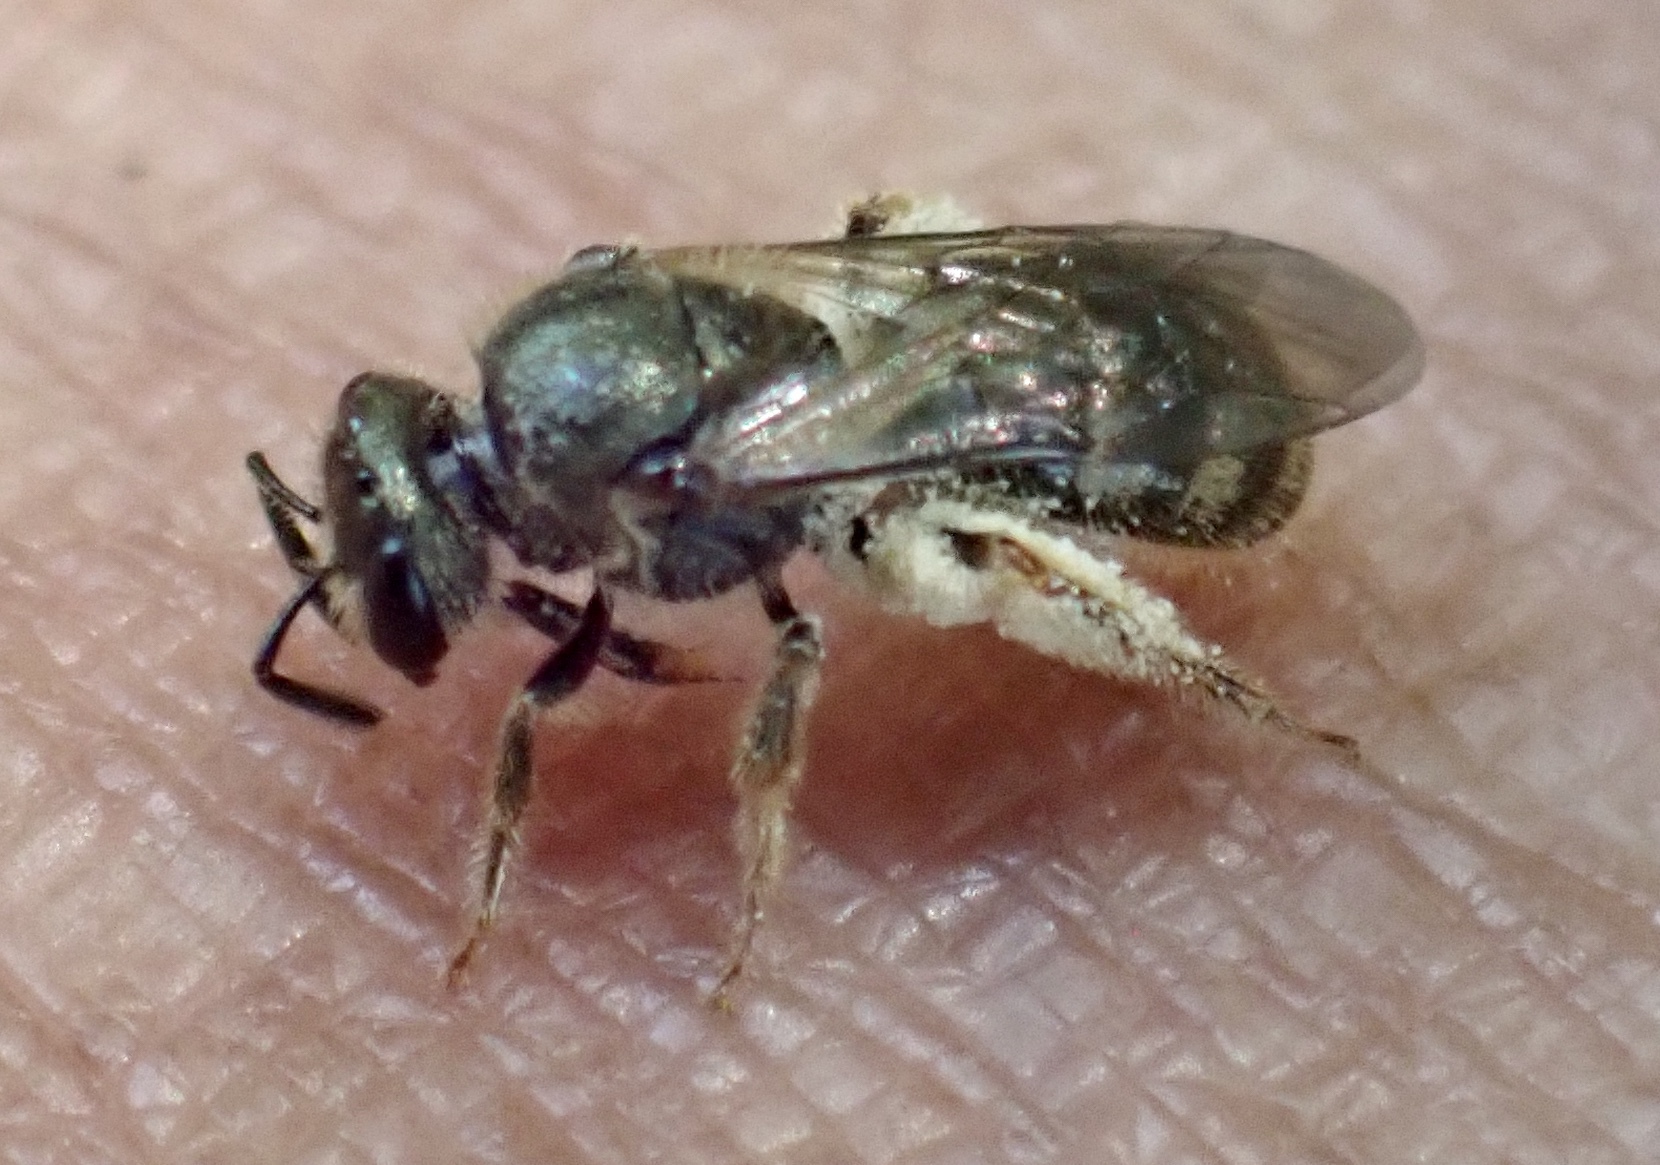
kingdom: Animalia
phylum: Arthropoda
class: Insecta
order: Hymenoptera
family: Halictidae
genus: Dialictus
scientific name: Dialictus
